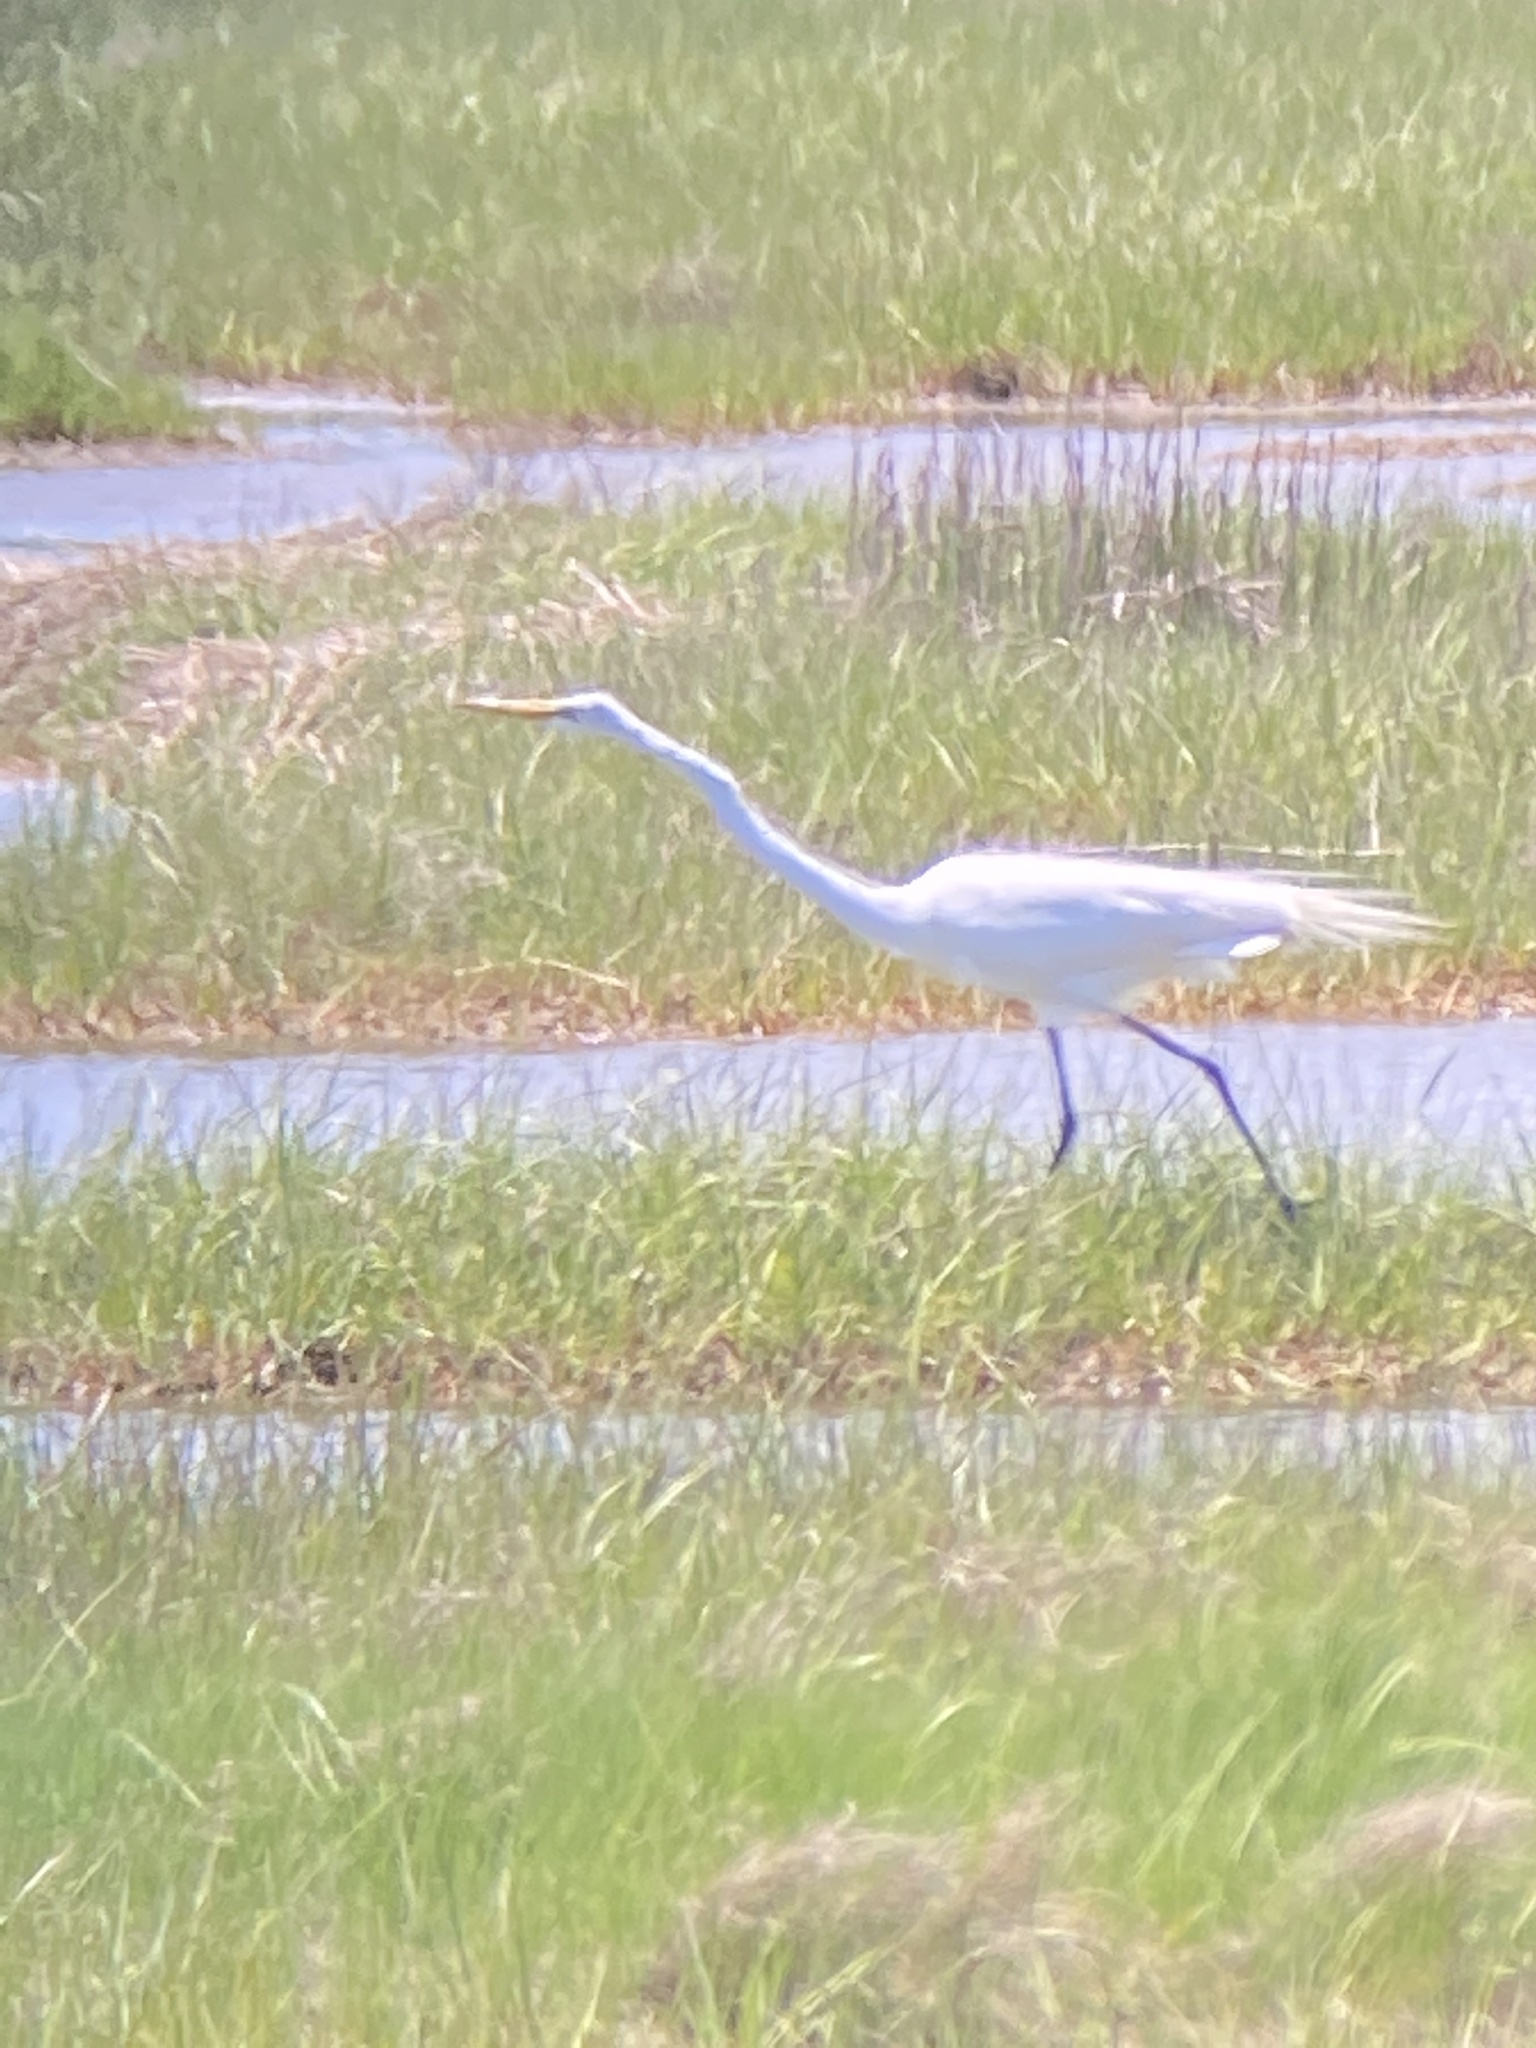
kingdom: Animalia
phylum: Chordata
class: Aves
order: Pelecaniformes
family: Ardeidae
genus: Ardea
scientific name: Ardea alba
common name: Great egret
